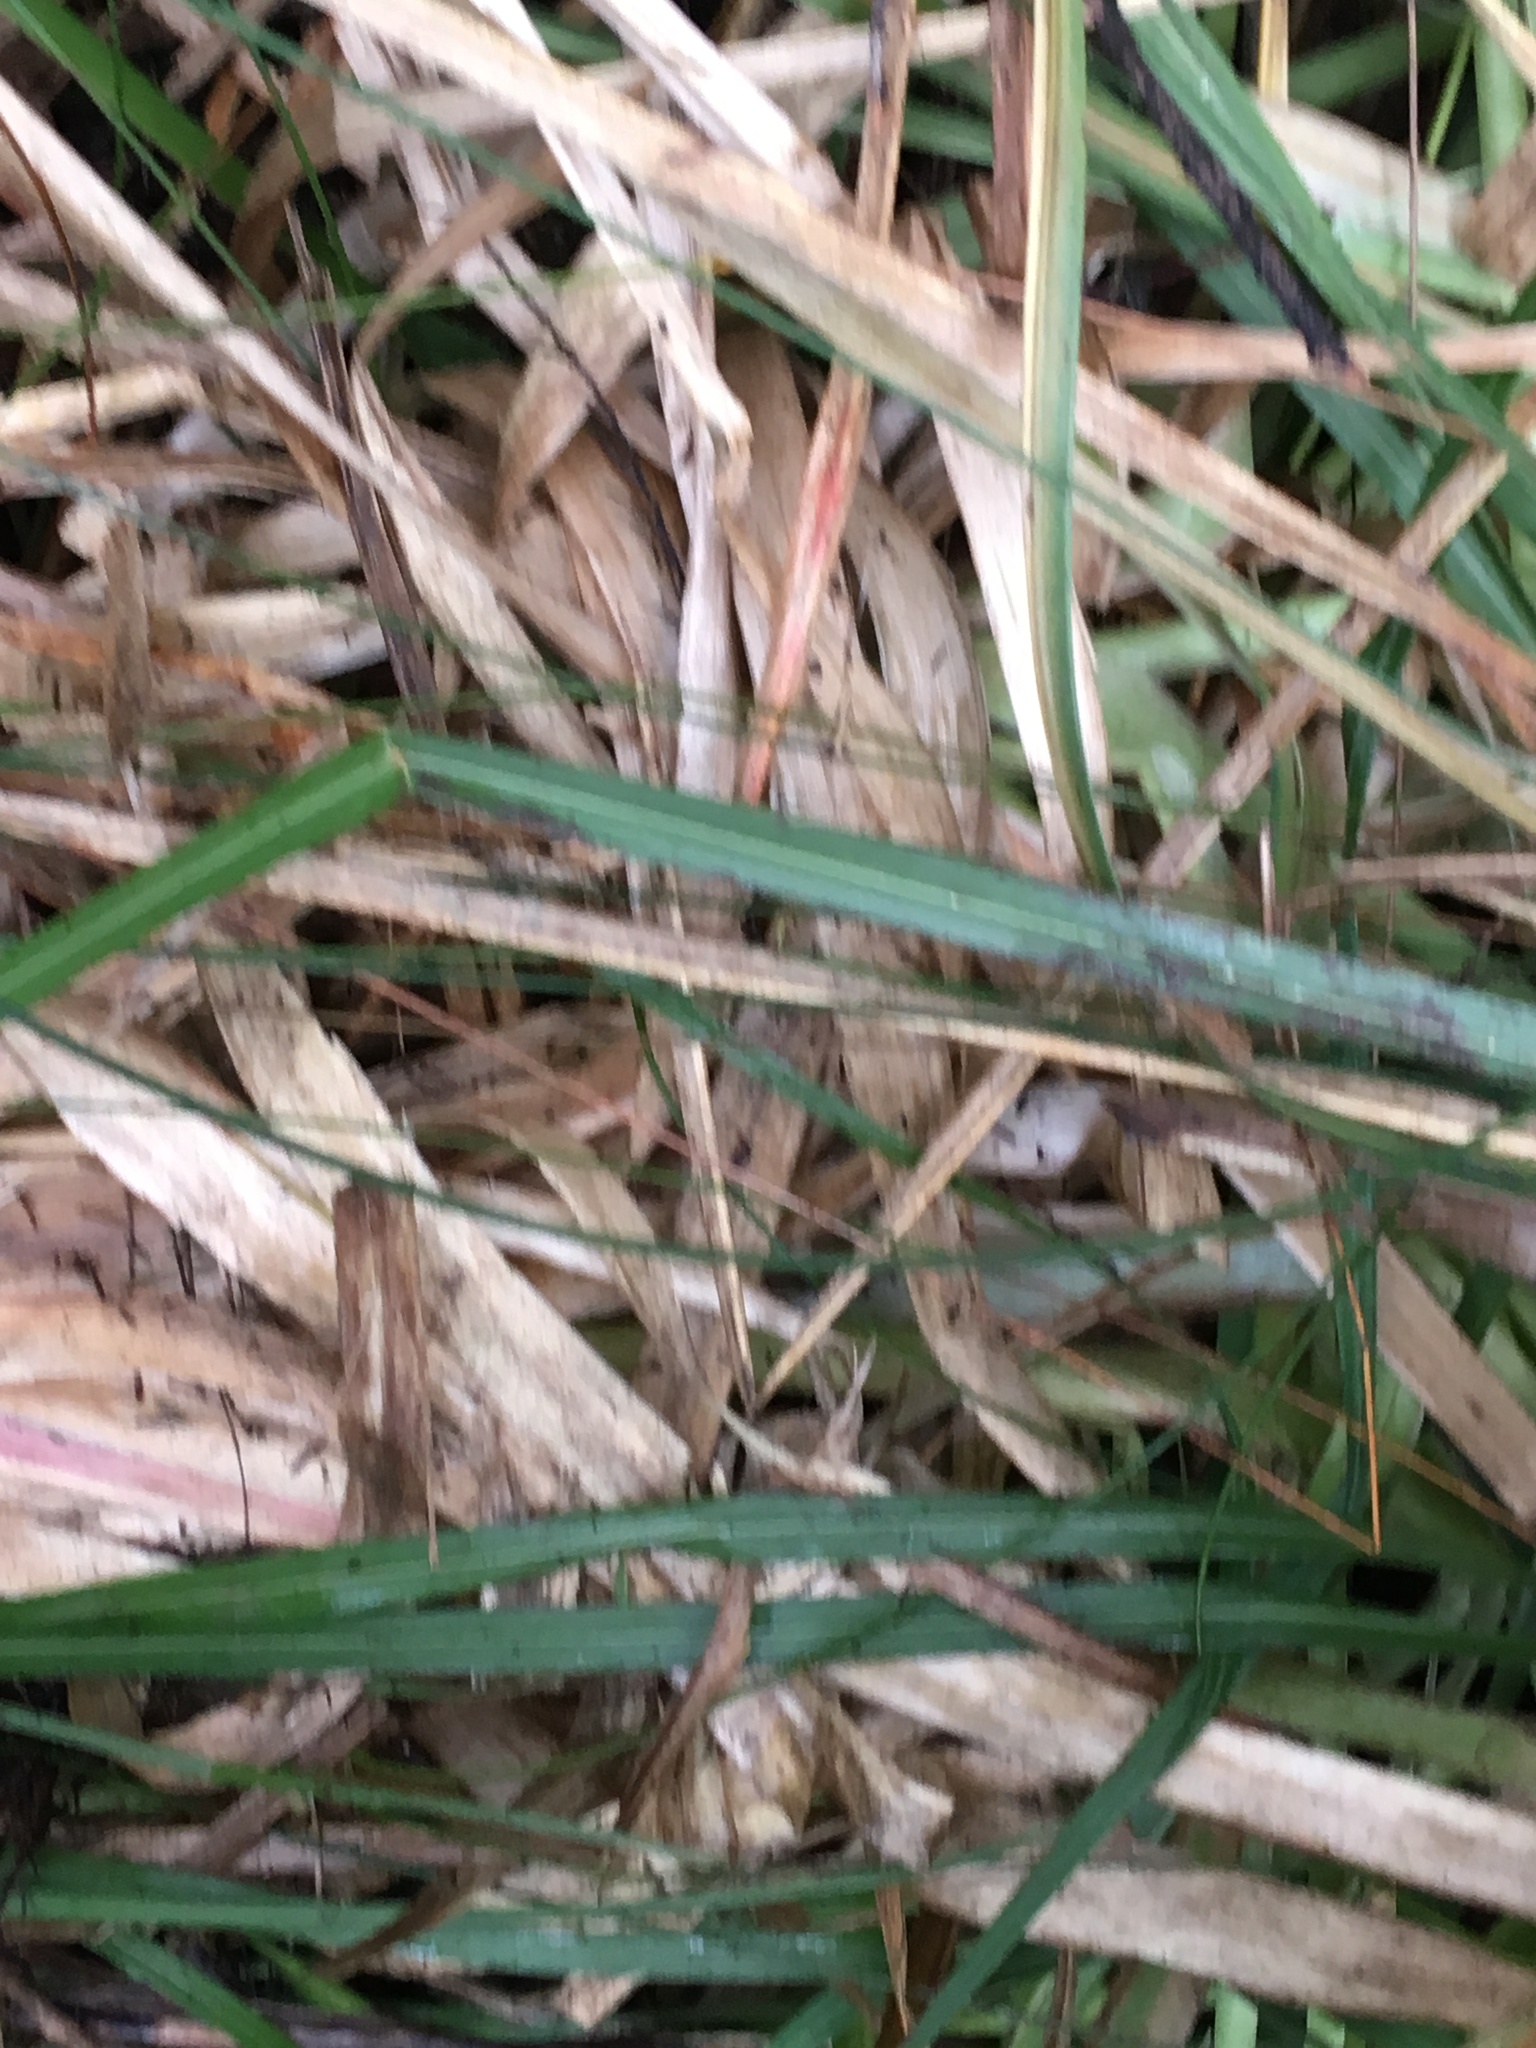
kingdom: Plantae
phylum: Tracheophyta
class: Liliopsida
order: Poales
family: Poaceae
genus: Cortaderia
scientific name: Cortaderia selloana
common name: Uruguayan pampas grass
